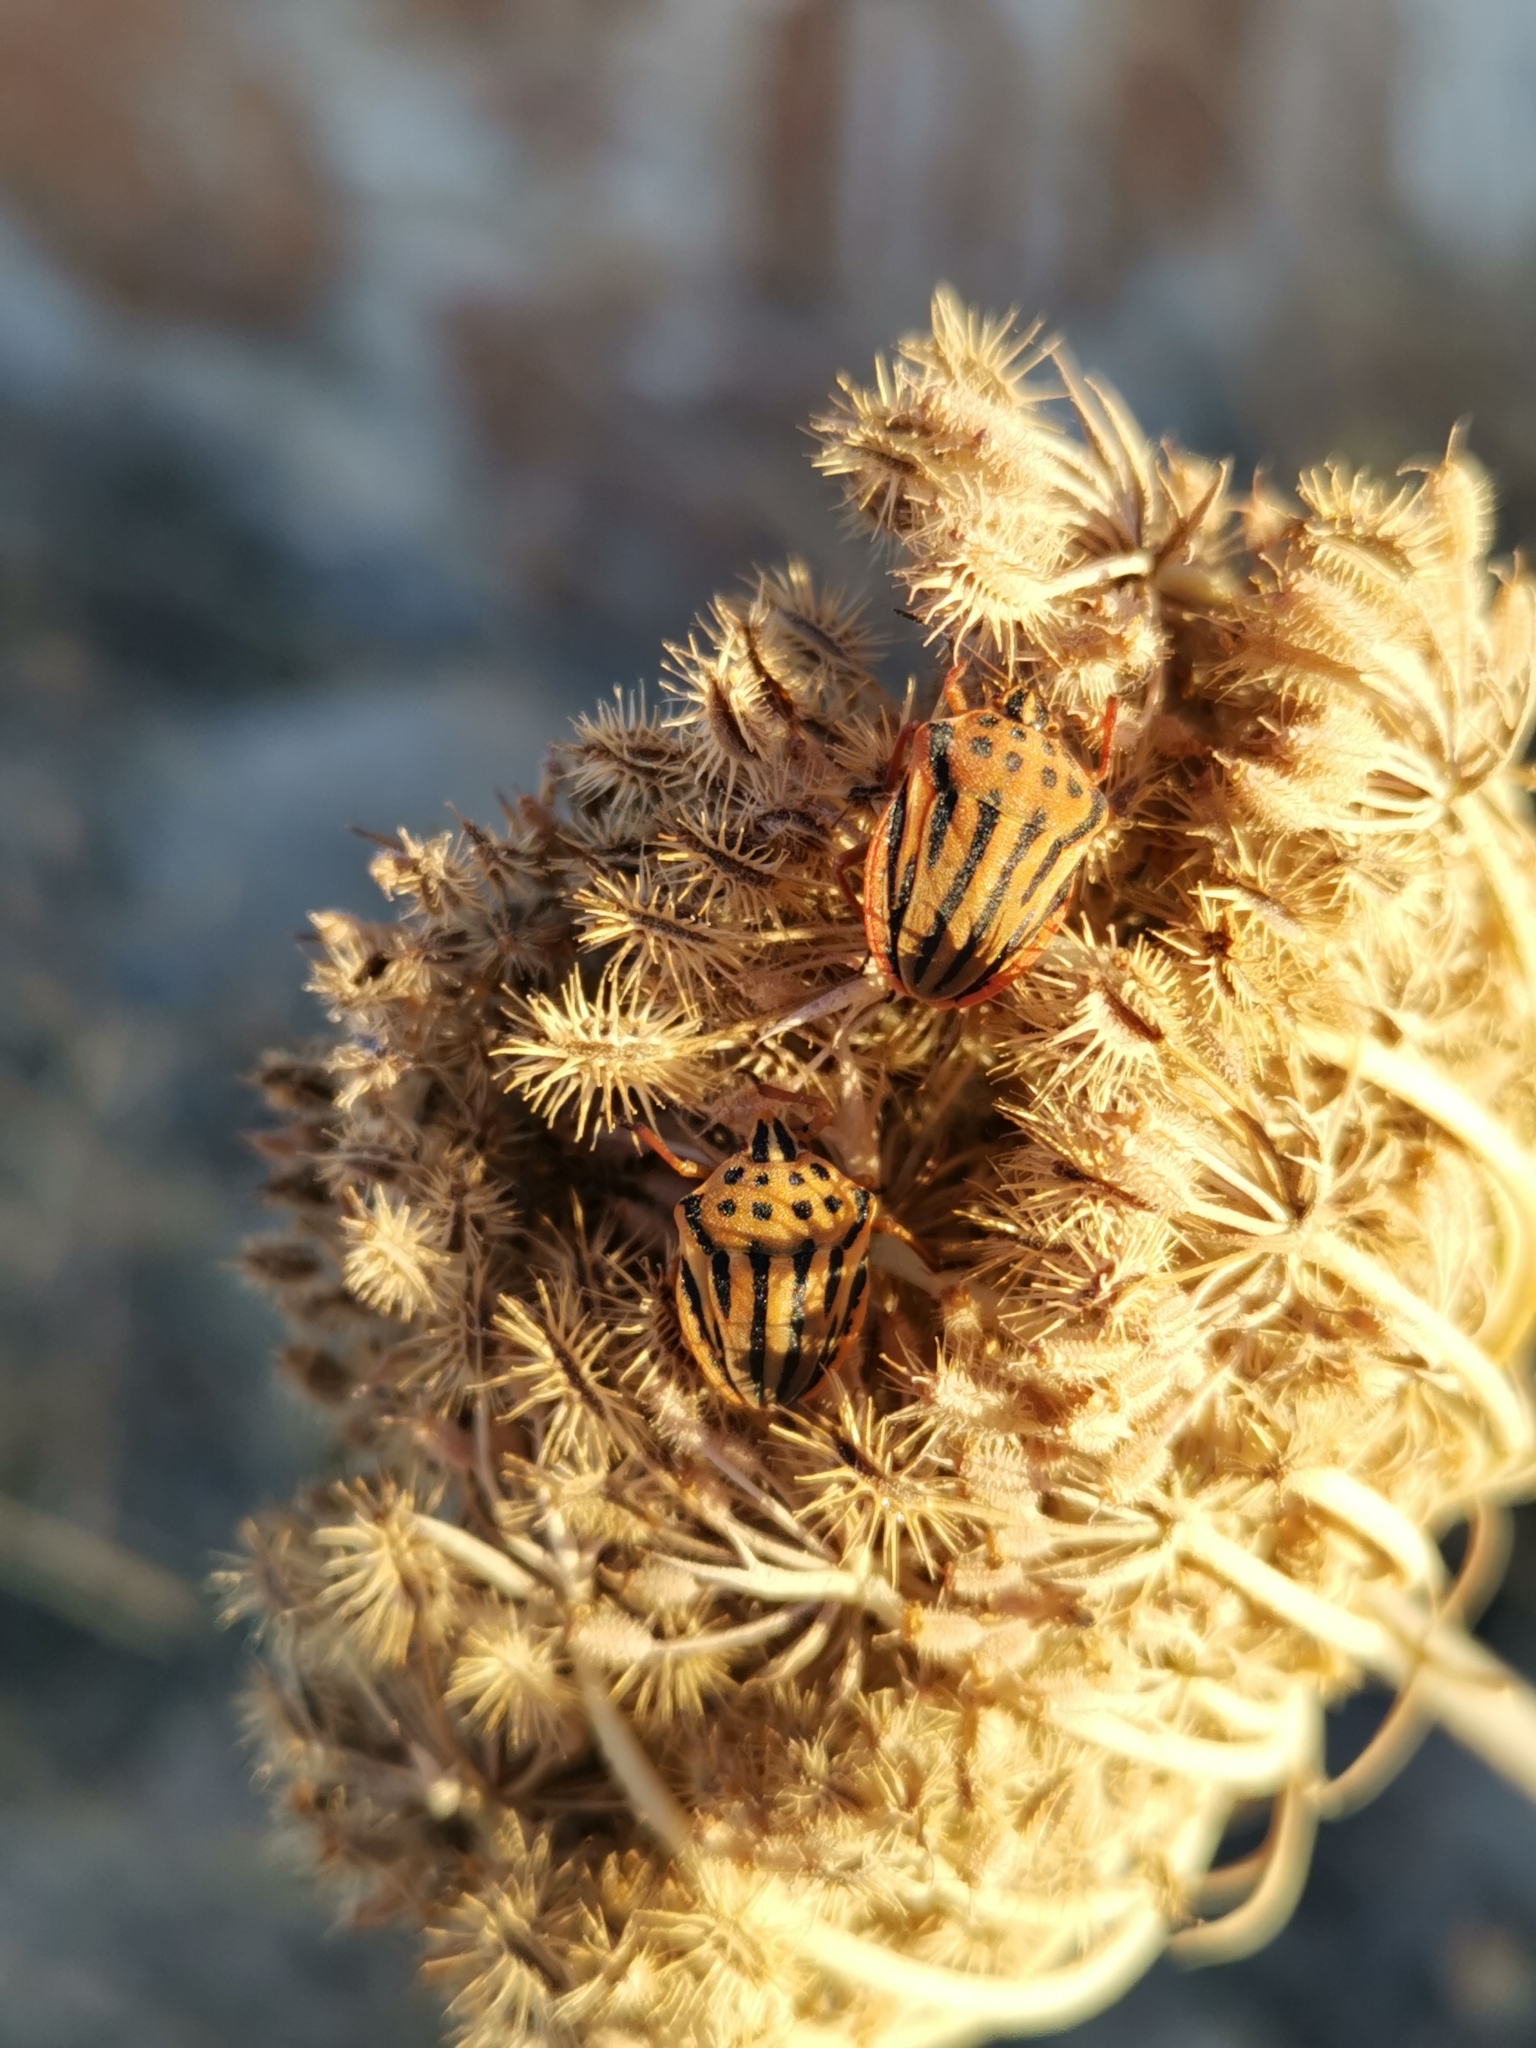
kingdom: Animalia
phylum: Arthropoda
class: Insecta
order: Hemiptera
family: Pentatomidae
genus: Graphosoma
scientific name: Graphosoma semipunctatum
